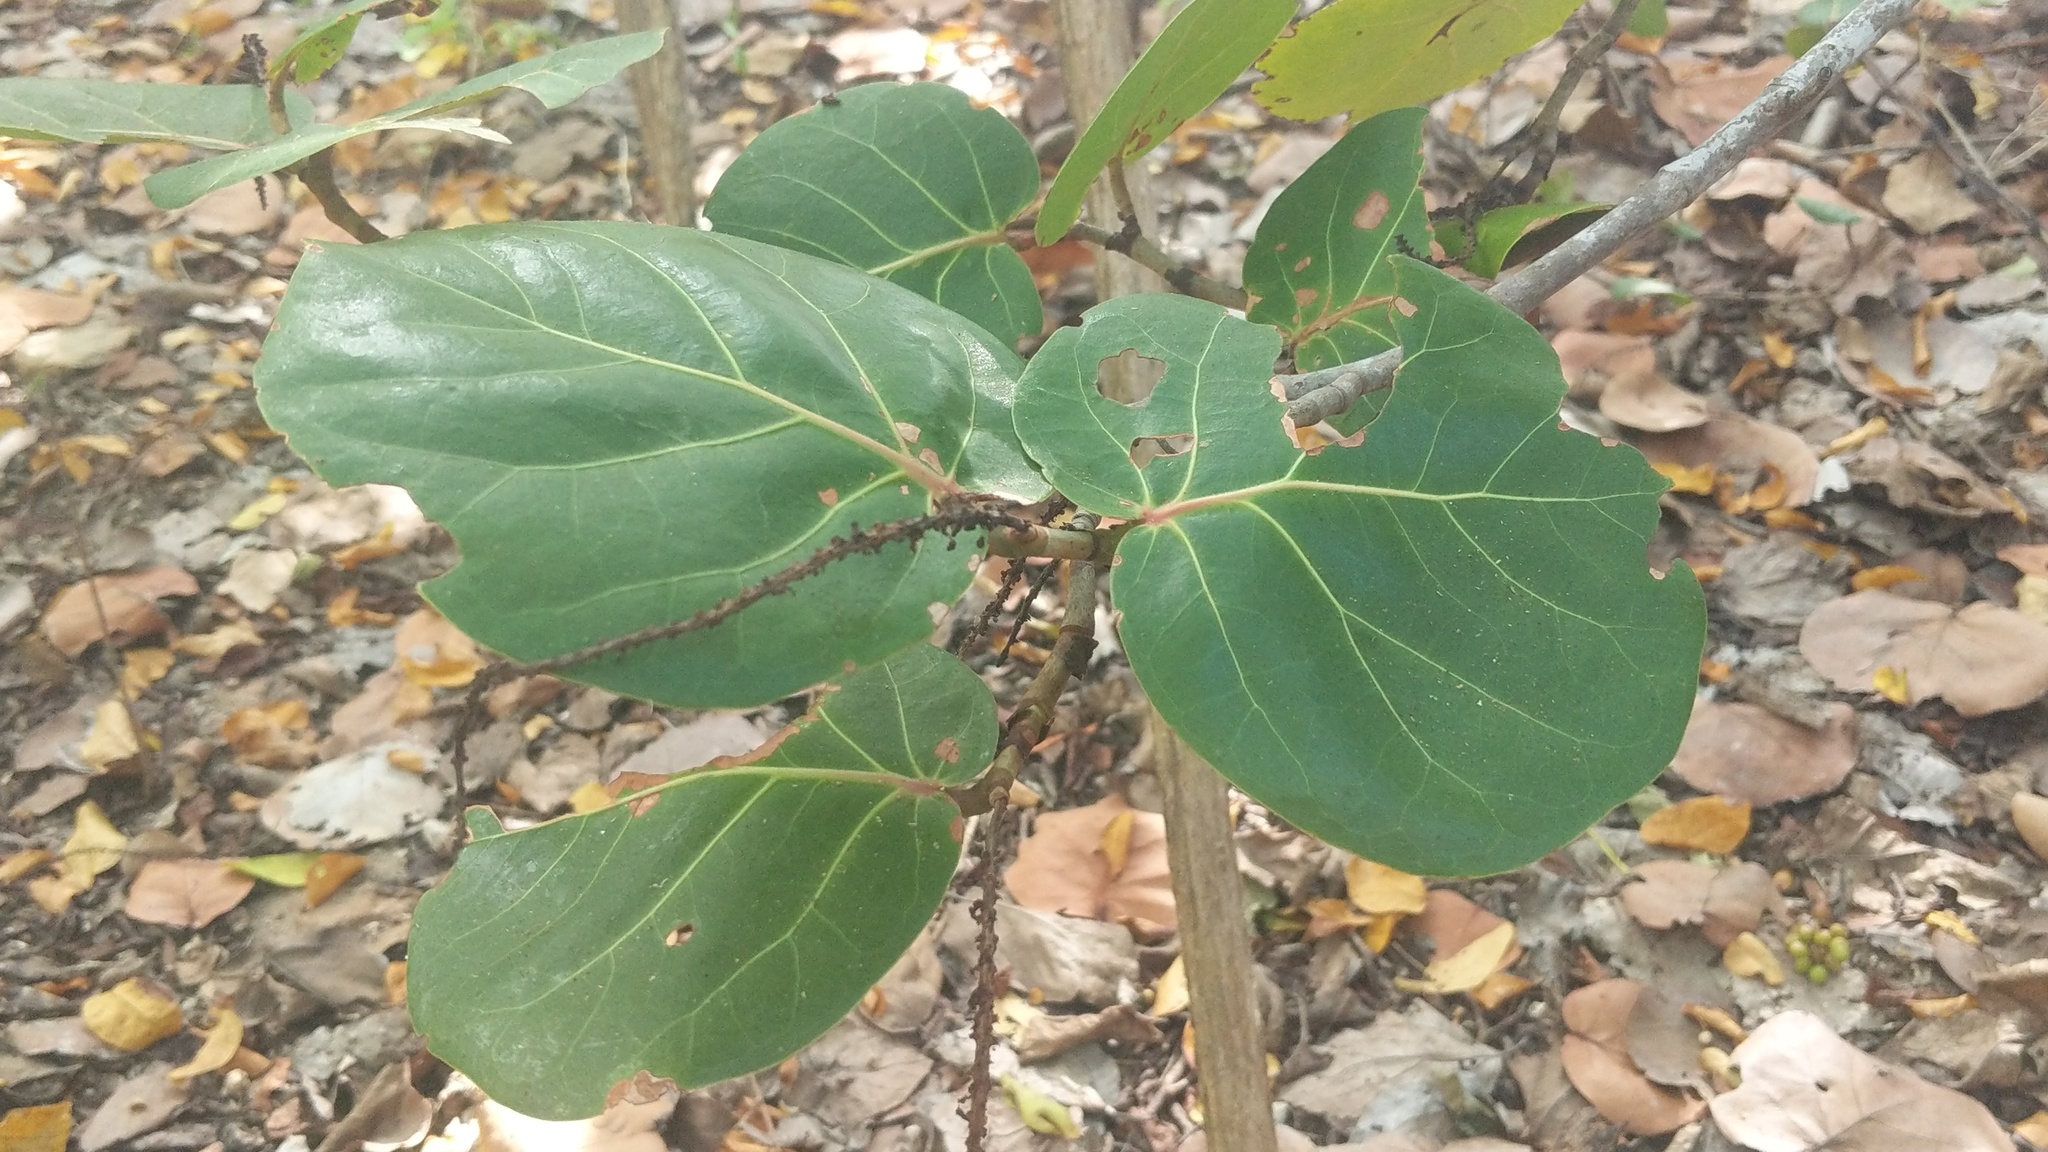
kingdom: Plantae
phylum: Tracheophyta
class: Magnoliopsida
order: Caryophyllales
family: Polygonaceae
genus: Coccoloba
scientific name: Coccoloba uvifera
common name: Seagrape
